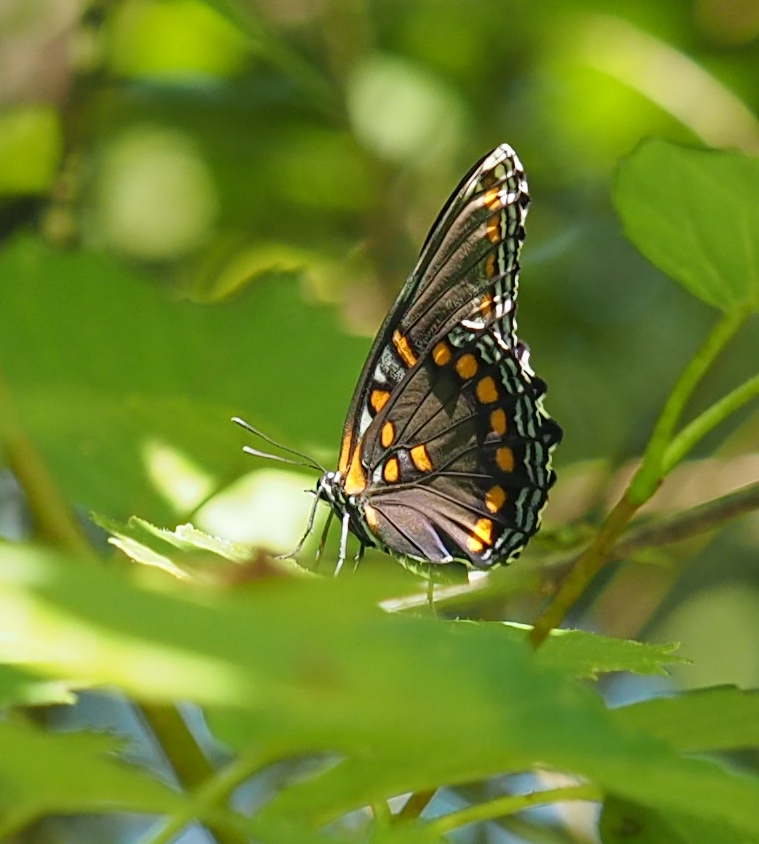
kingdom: Animalia
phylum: Arthropoda
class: Insecta
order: Lepidoptera
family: Nymphalidae
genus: Limenitis
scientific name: Limenitis astyanax
